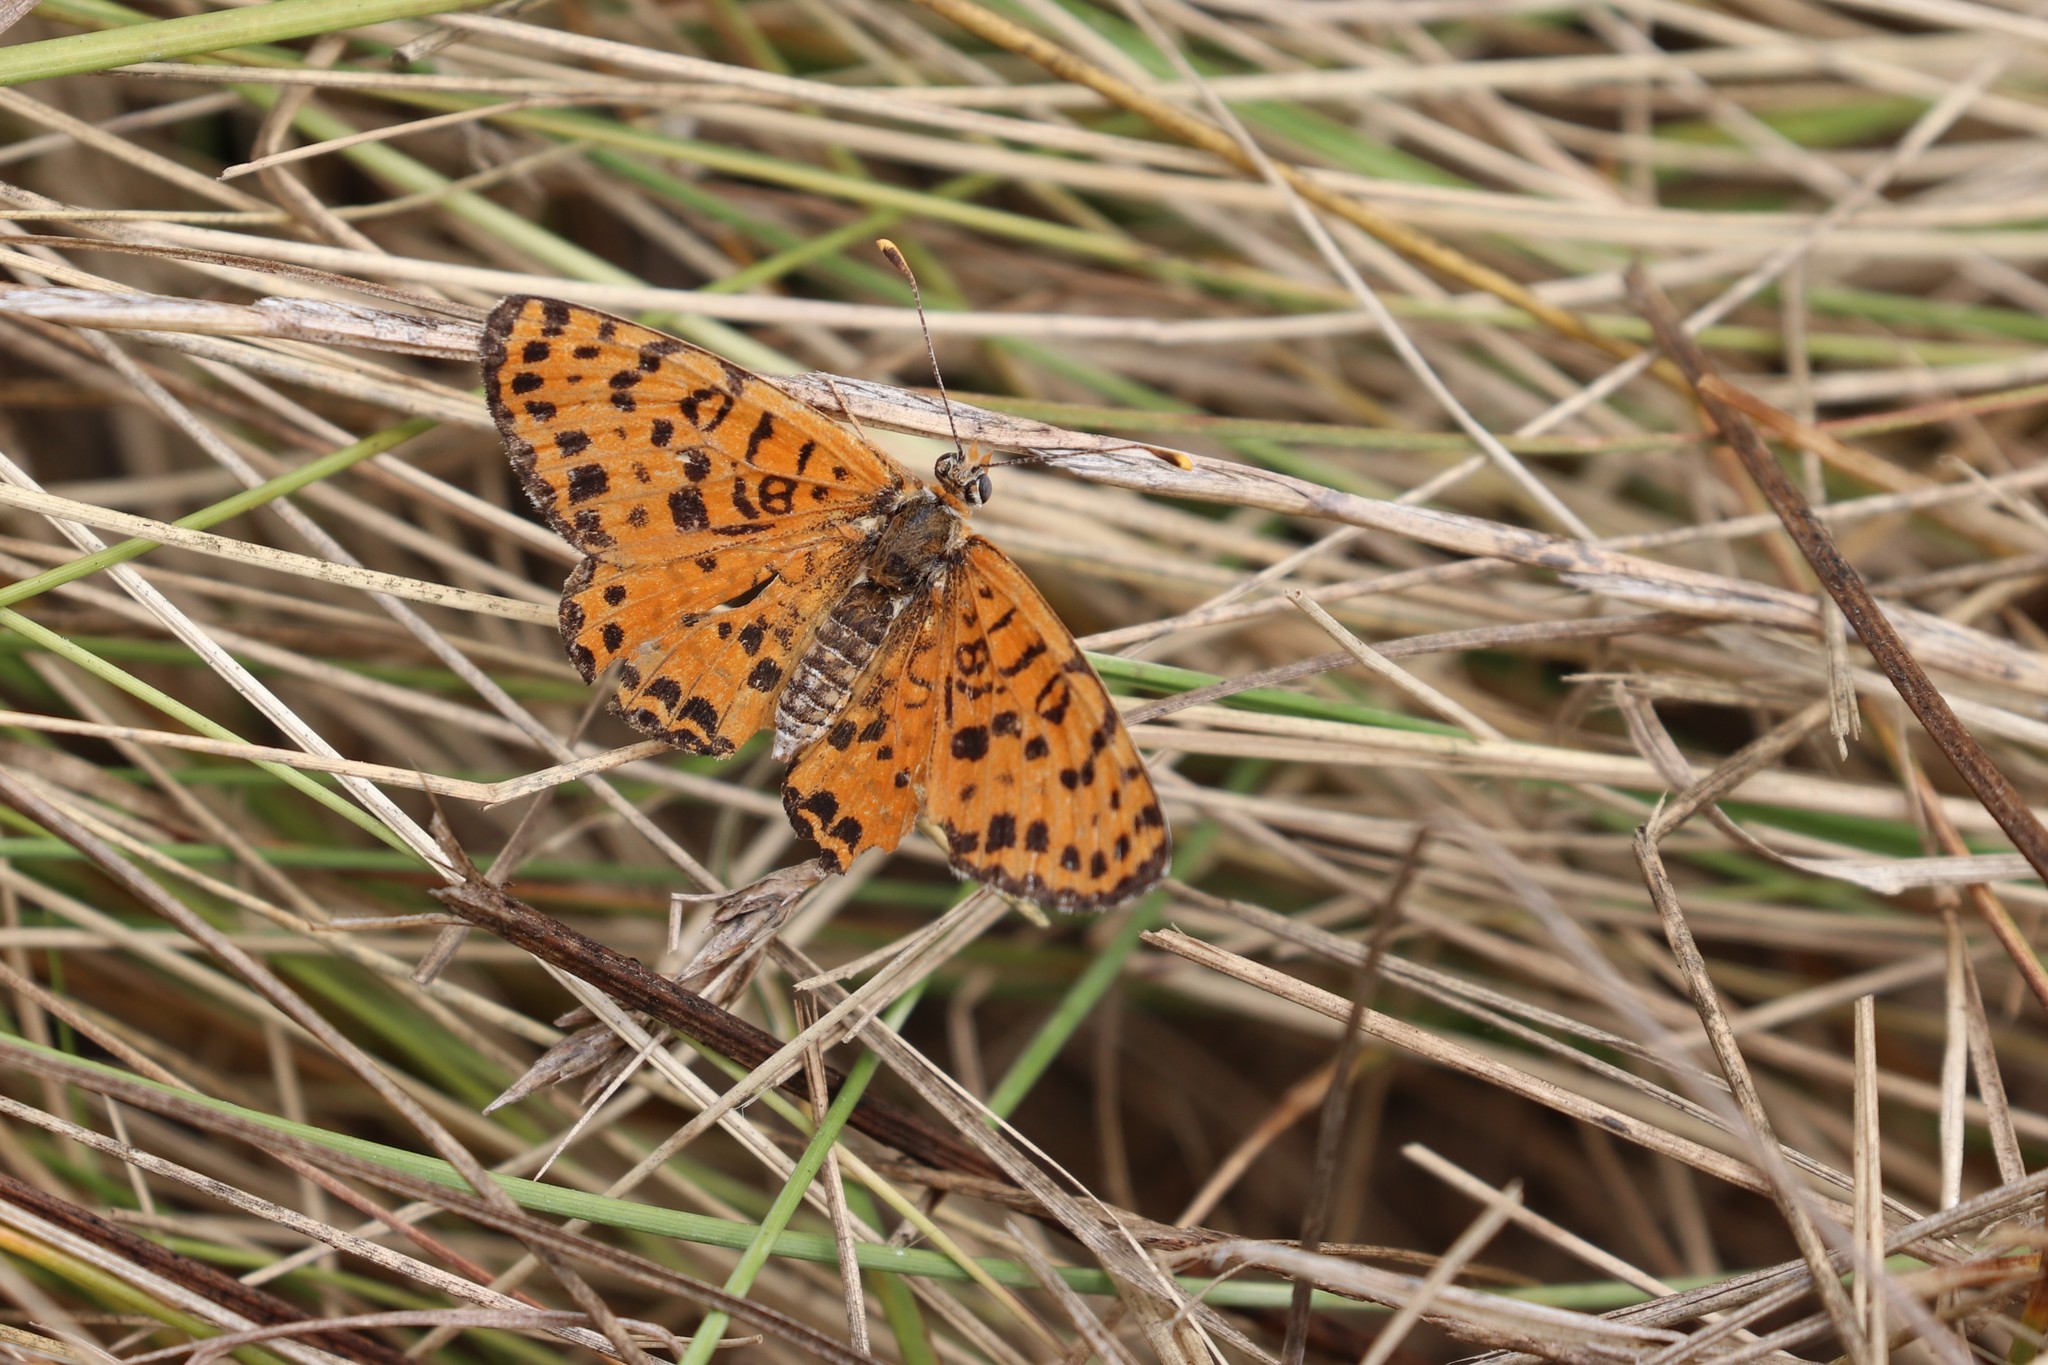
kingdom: Animalia
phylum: Arthropoda
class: Insecta
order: Lepidoptera
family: Nymphalidae
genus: Melitaea
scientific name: Melitaea didyma
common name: Spotted fritillary
